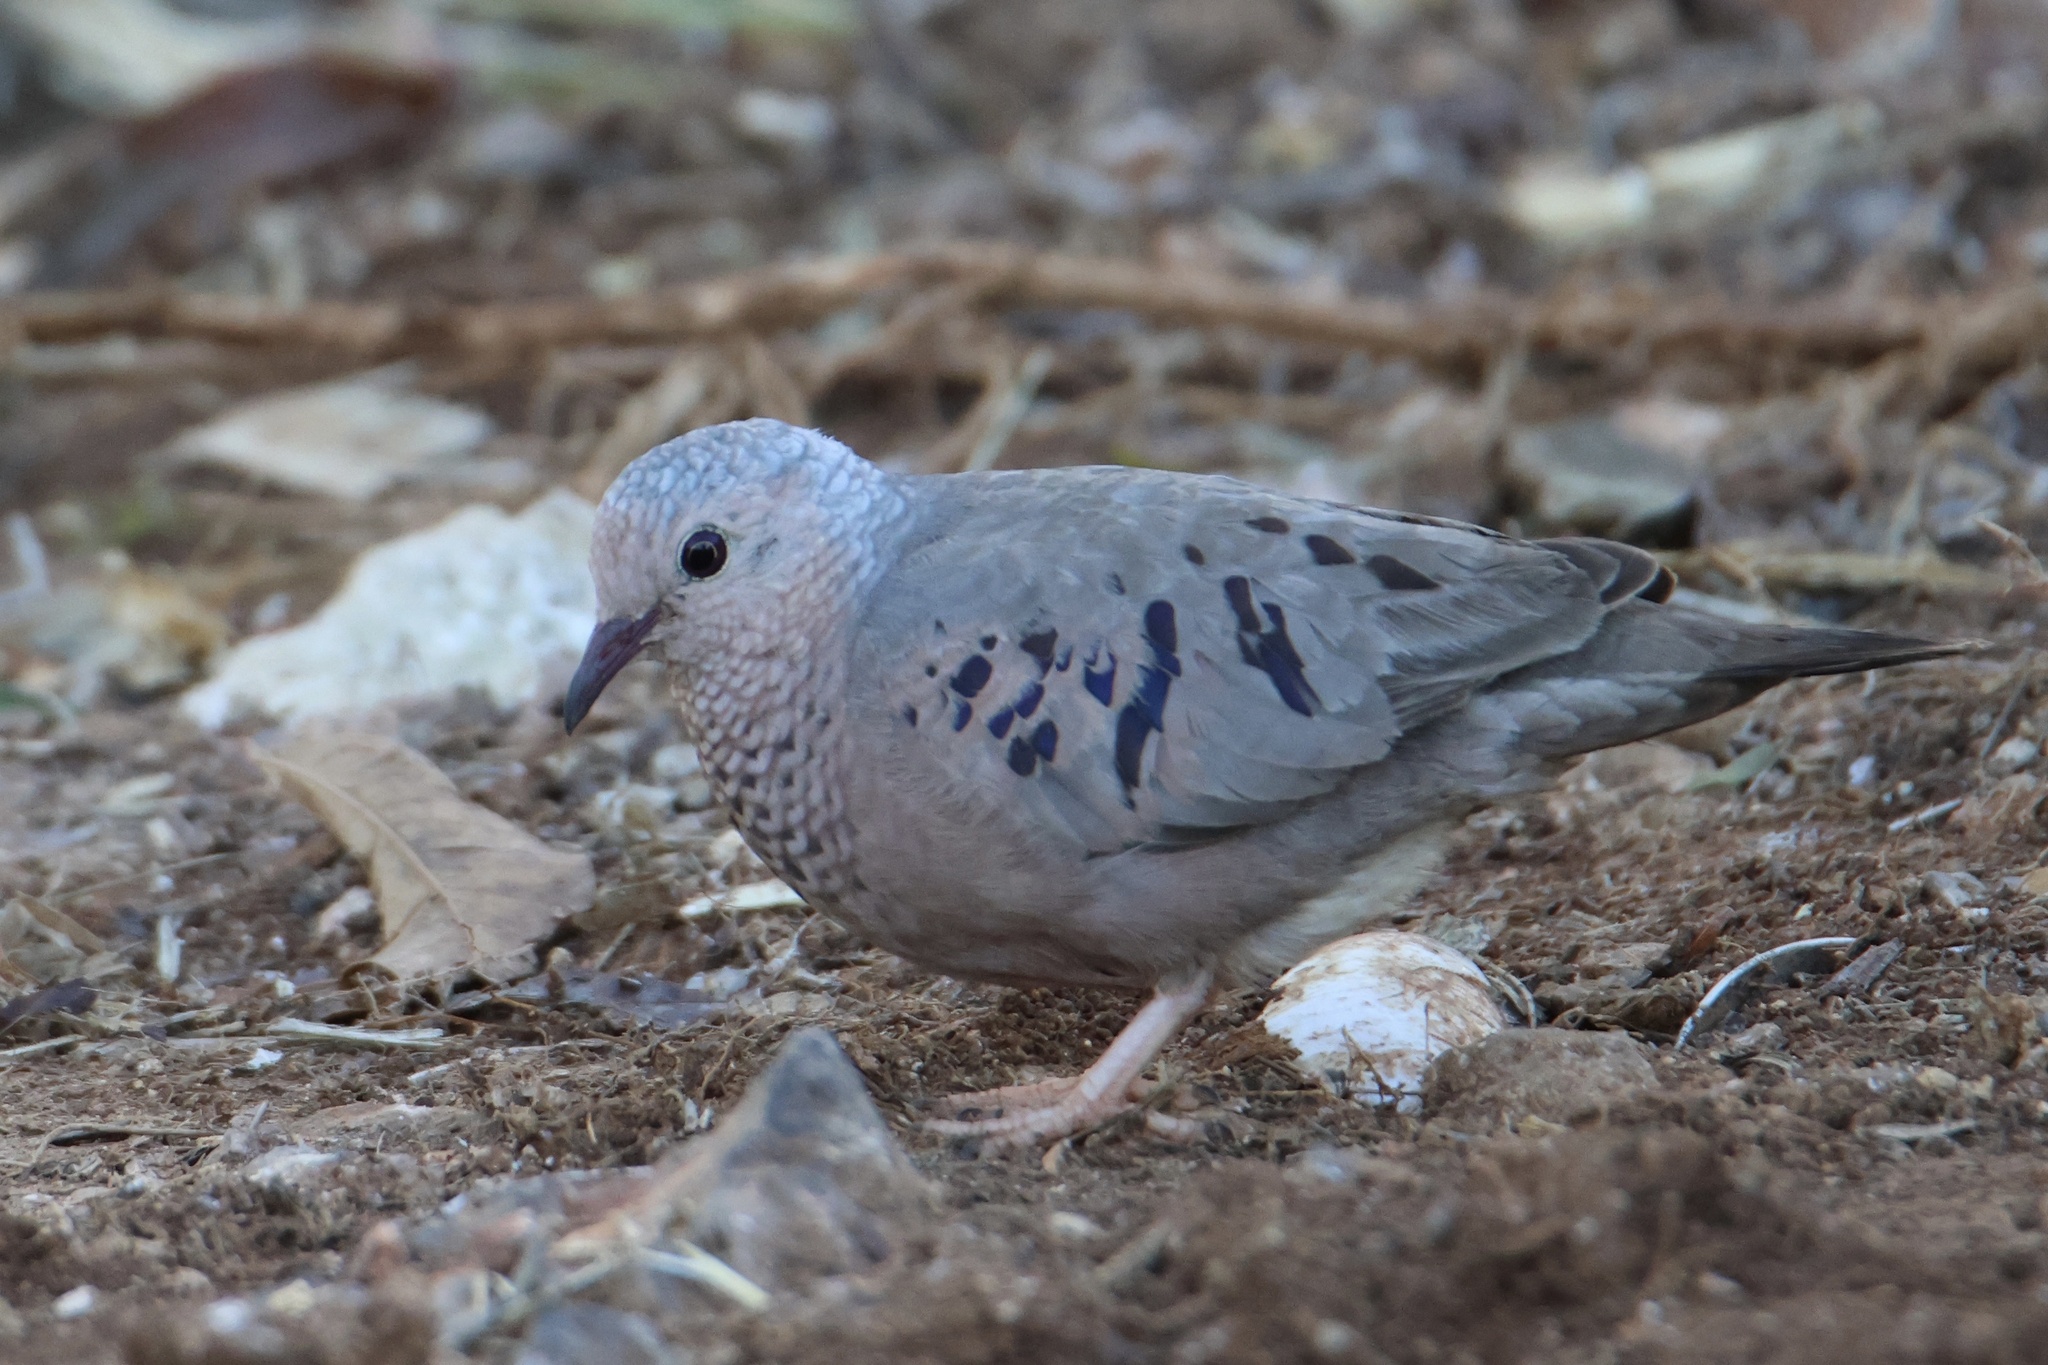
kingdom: Animalia
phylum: Chordata
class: Aves
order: Columbiformes
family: Columbidae
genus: Columbina
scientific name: Columbina passerina
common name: Common ground-dove
